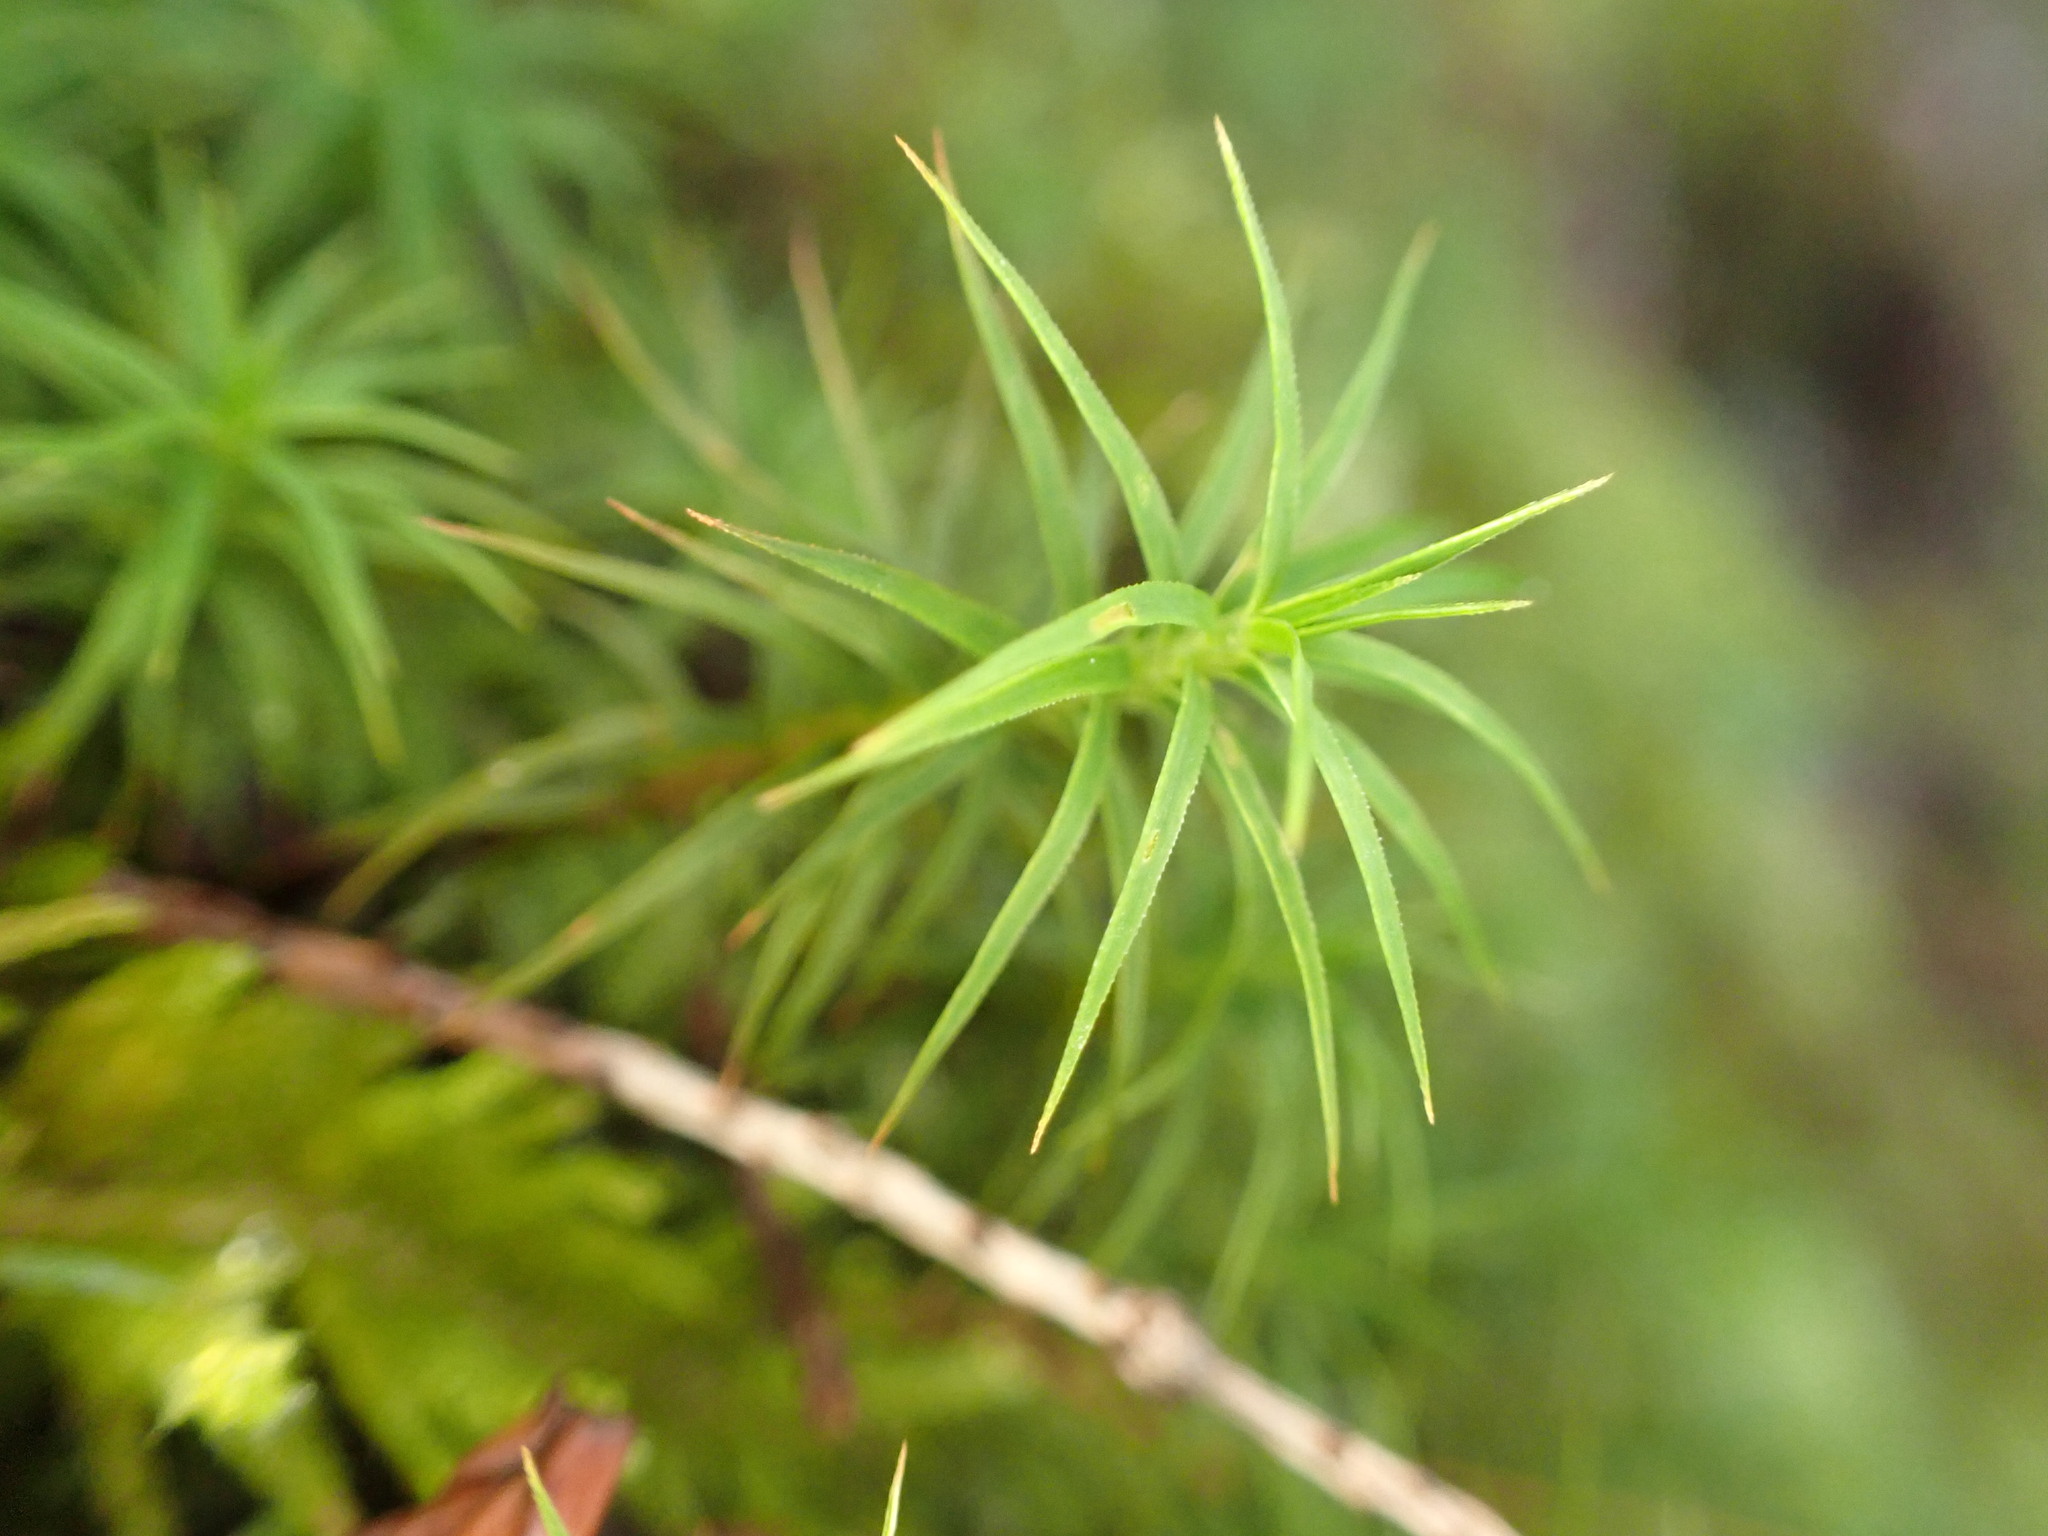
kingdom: Plantae
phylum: Bryophyta
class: Polytrichopsida
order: Polytrichales
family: Polytrichaceae
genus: Polytrichastrum
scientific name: Polytrichastrum alpinum
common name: Alpine haircap
